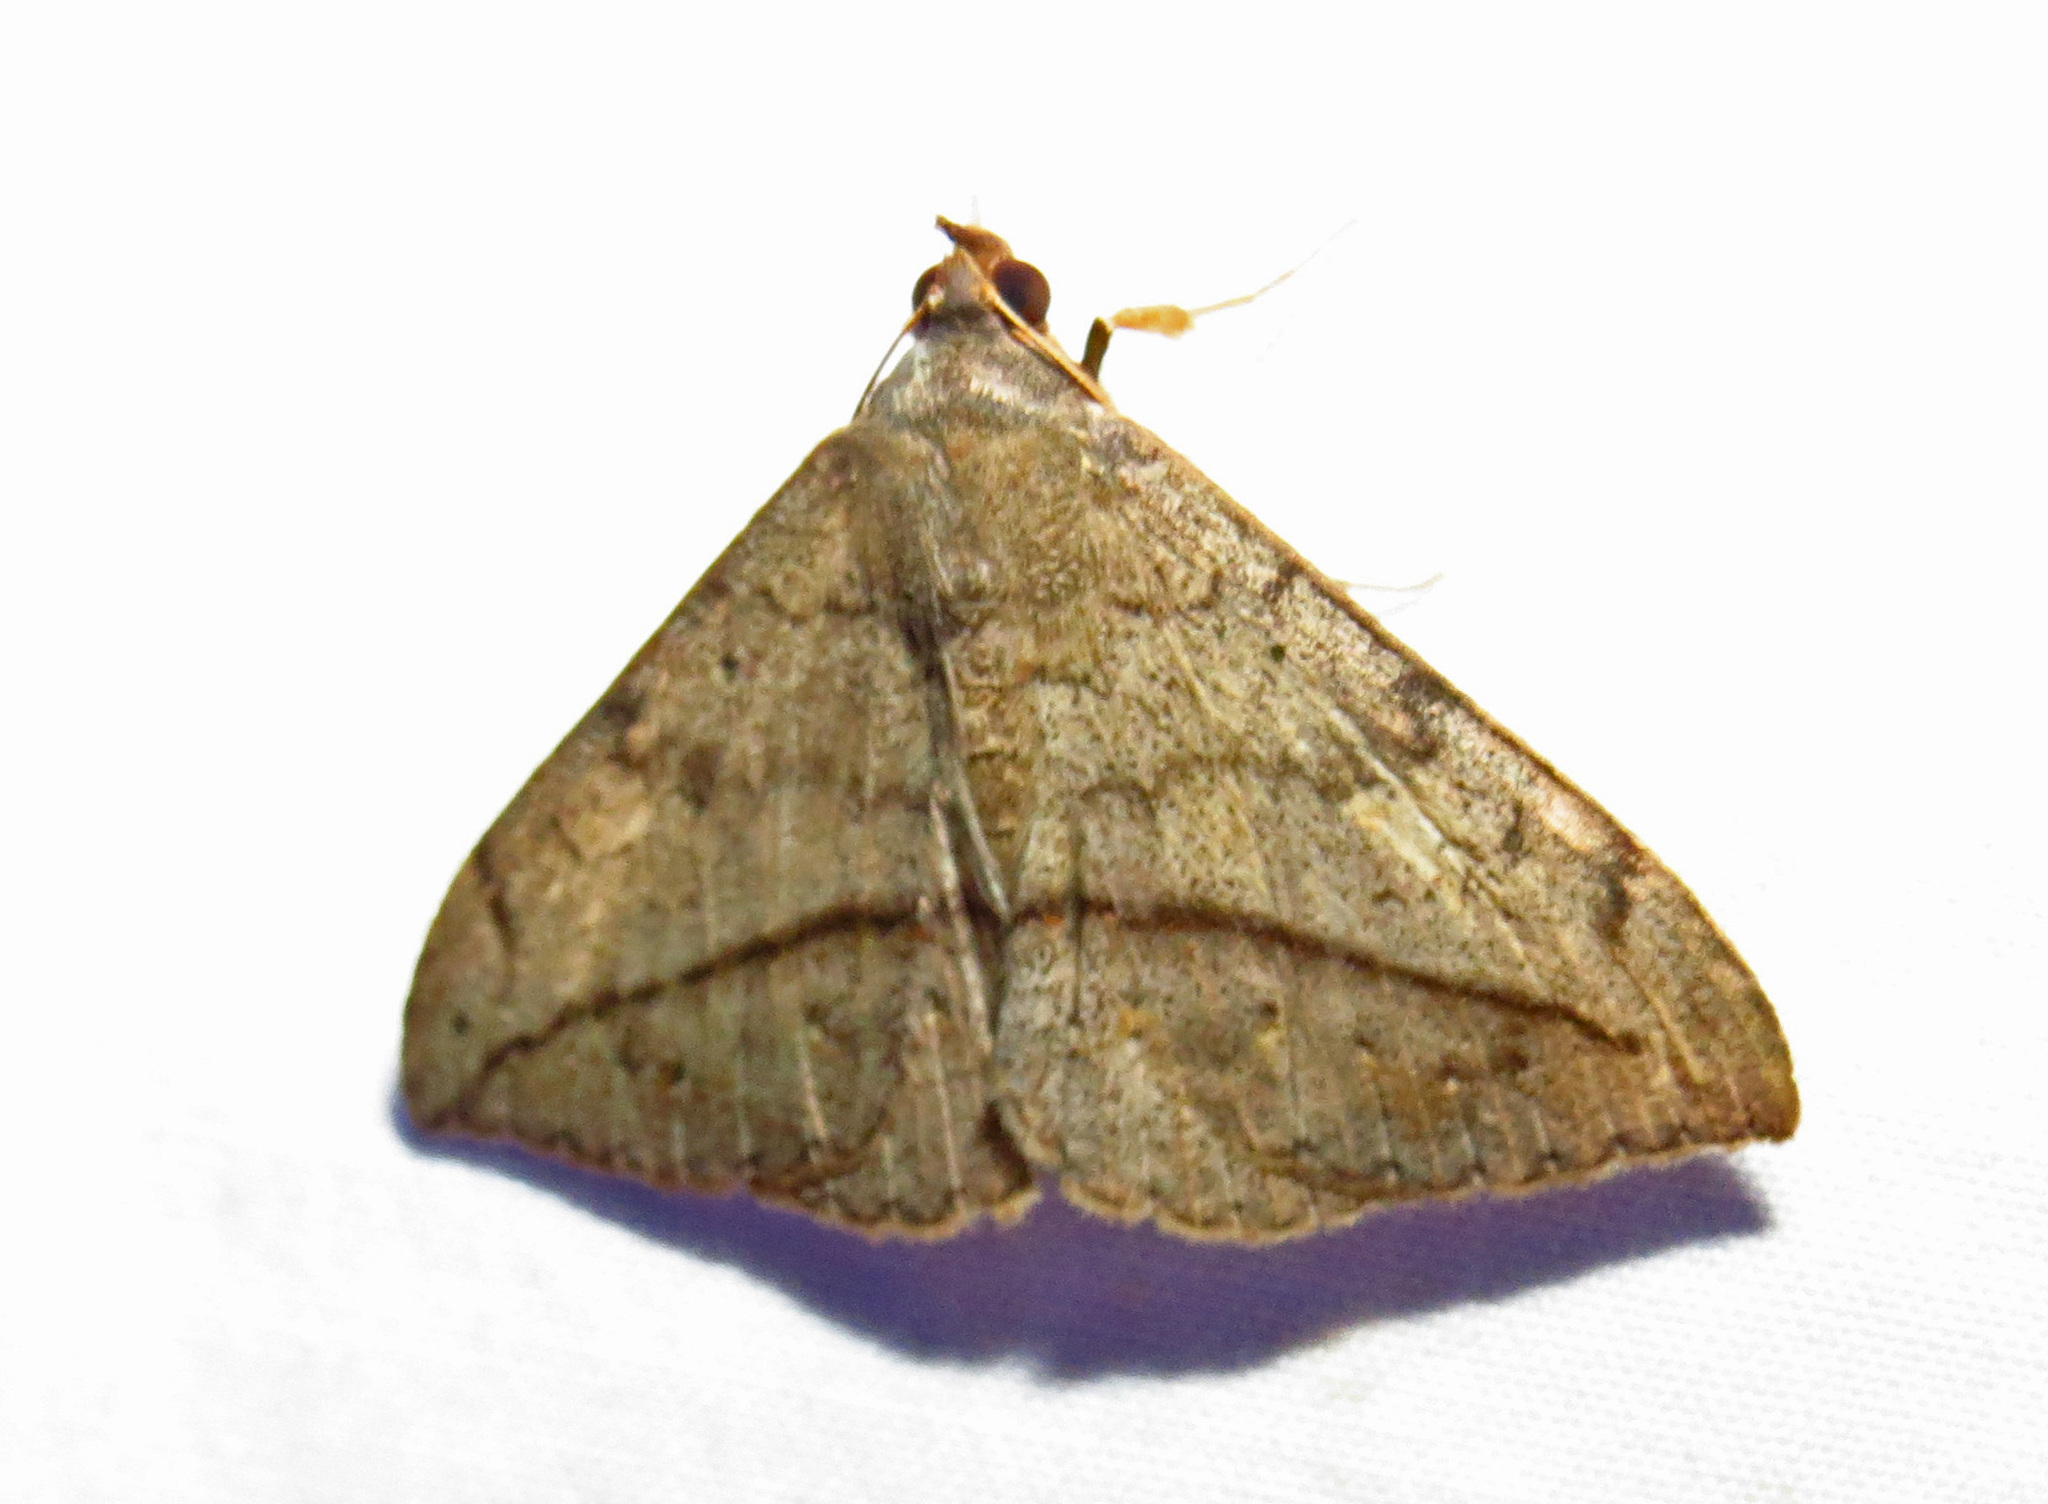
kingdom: Animalia
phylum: Arthropoda
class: Insecta
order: Lepidoptera
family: Erebidae
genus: Anticarsia
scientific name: Anticarsia gemmatalis
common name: Cutworm moth
